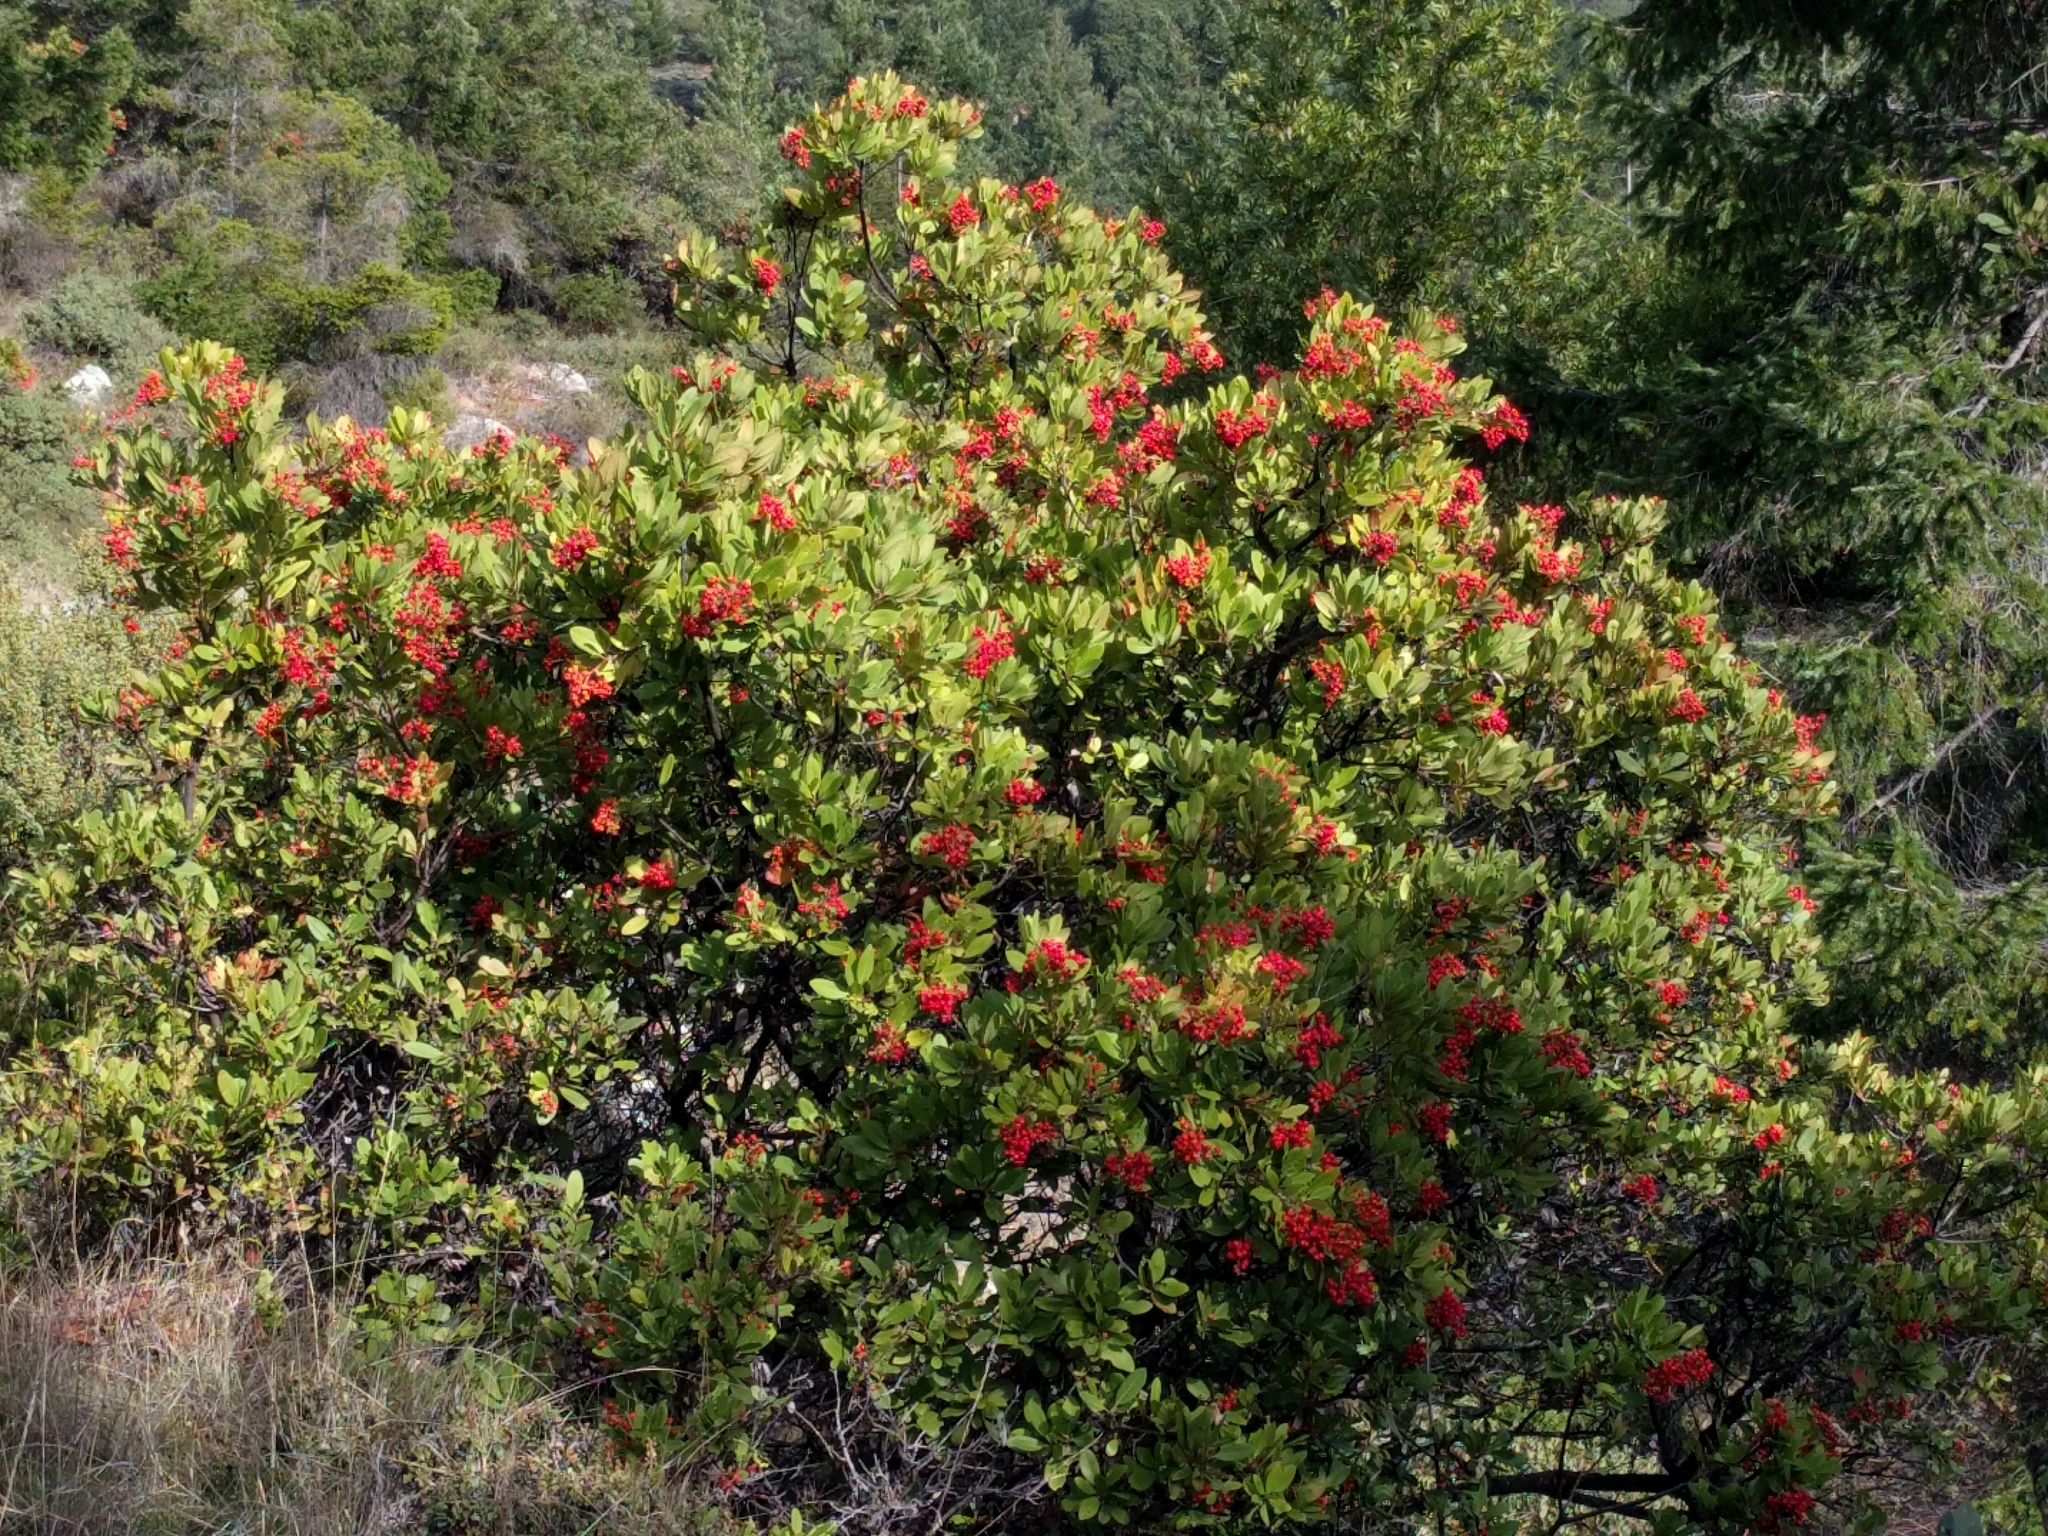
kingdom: Plantae
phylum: Tracheophyta
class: Magnoliopsida
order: Rosales
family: Rosaceae
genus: Heteromeles
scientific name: Heteromeles arbutifolia
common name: California-holly
